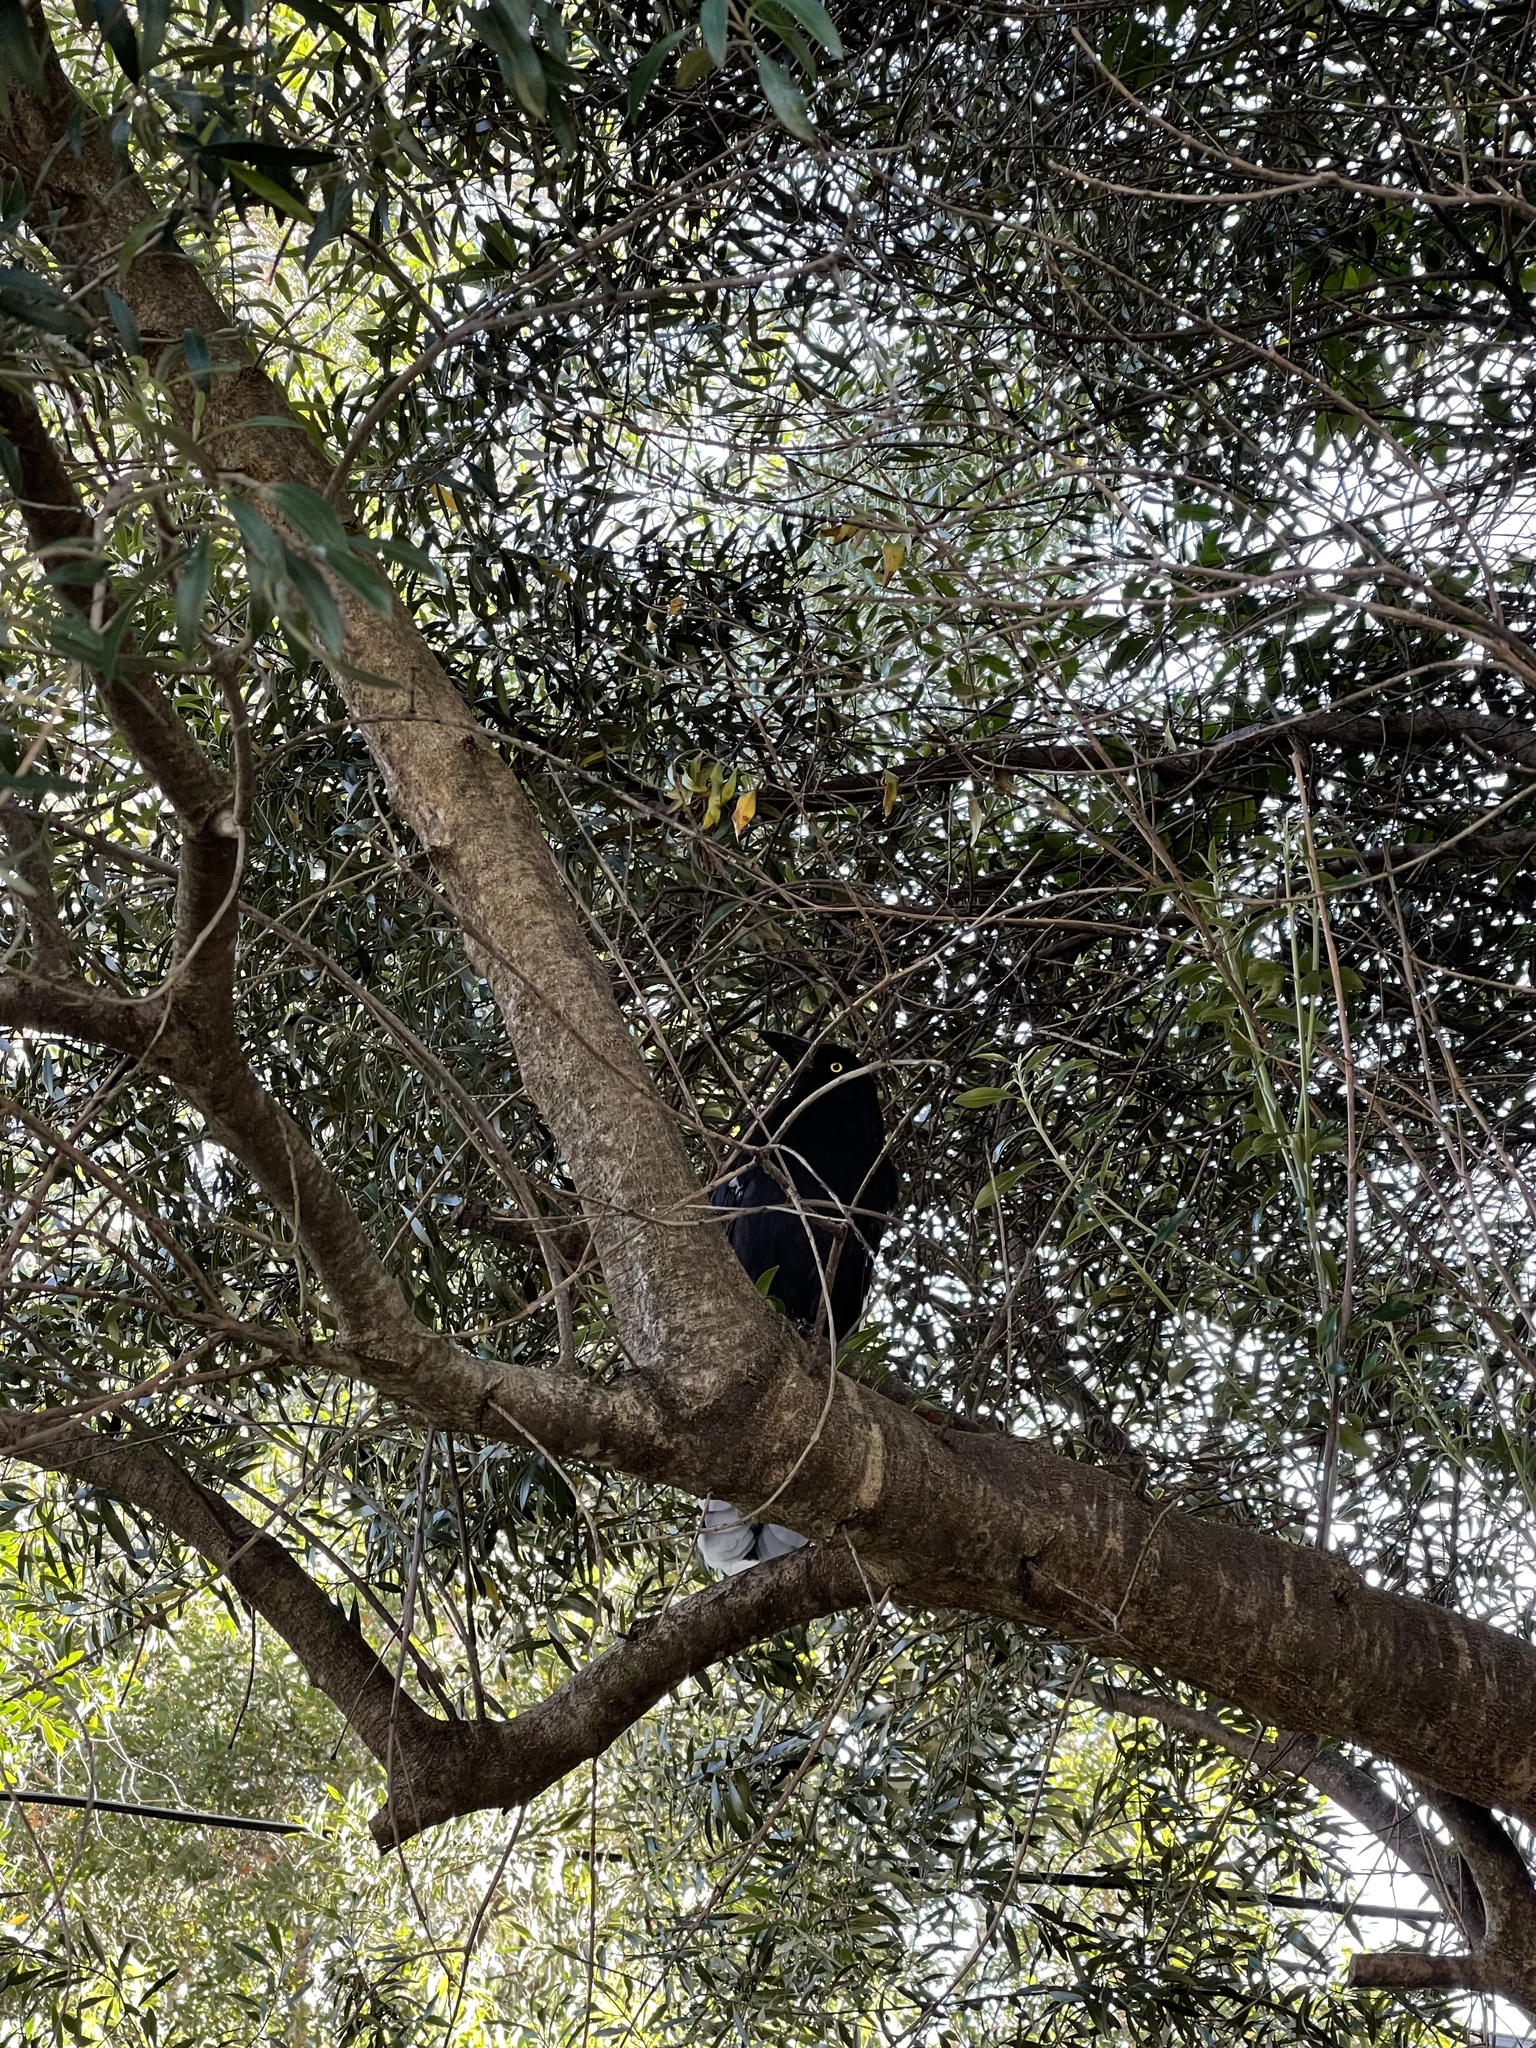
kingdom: Animalia
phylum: Chordata
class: Aves
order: Passeriformes
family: Cracticidae
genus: Strepera
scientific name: Strepera graculina
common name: Pied currawong
